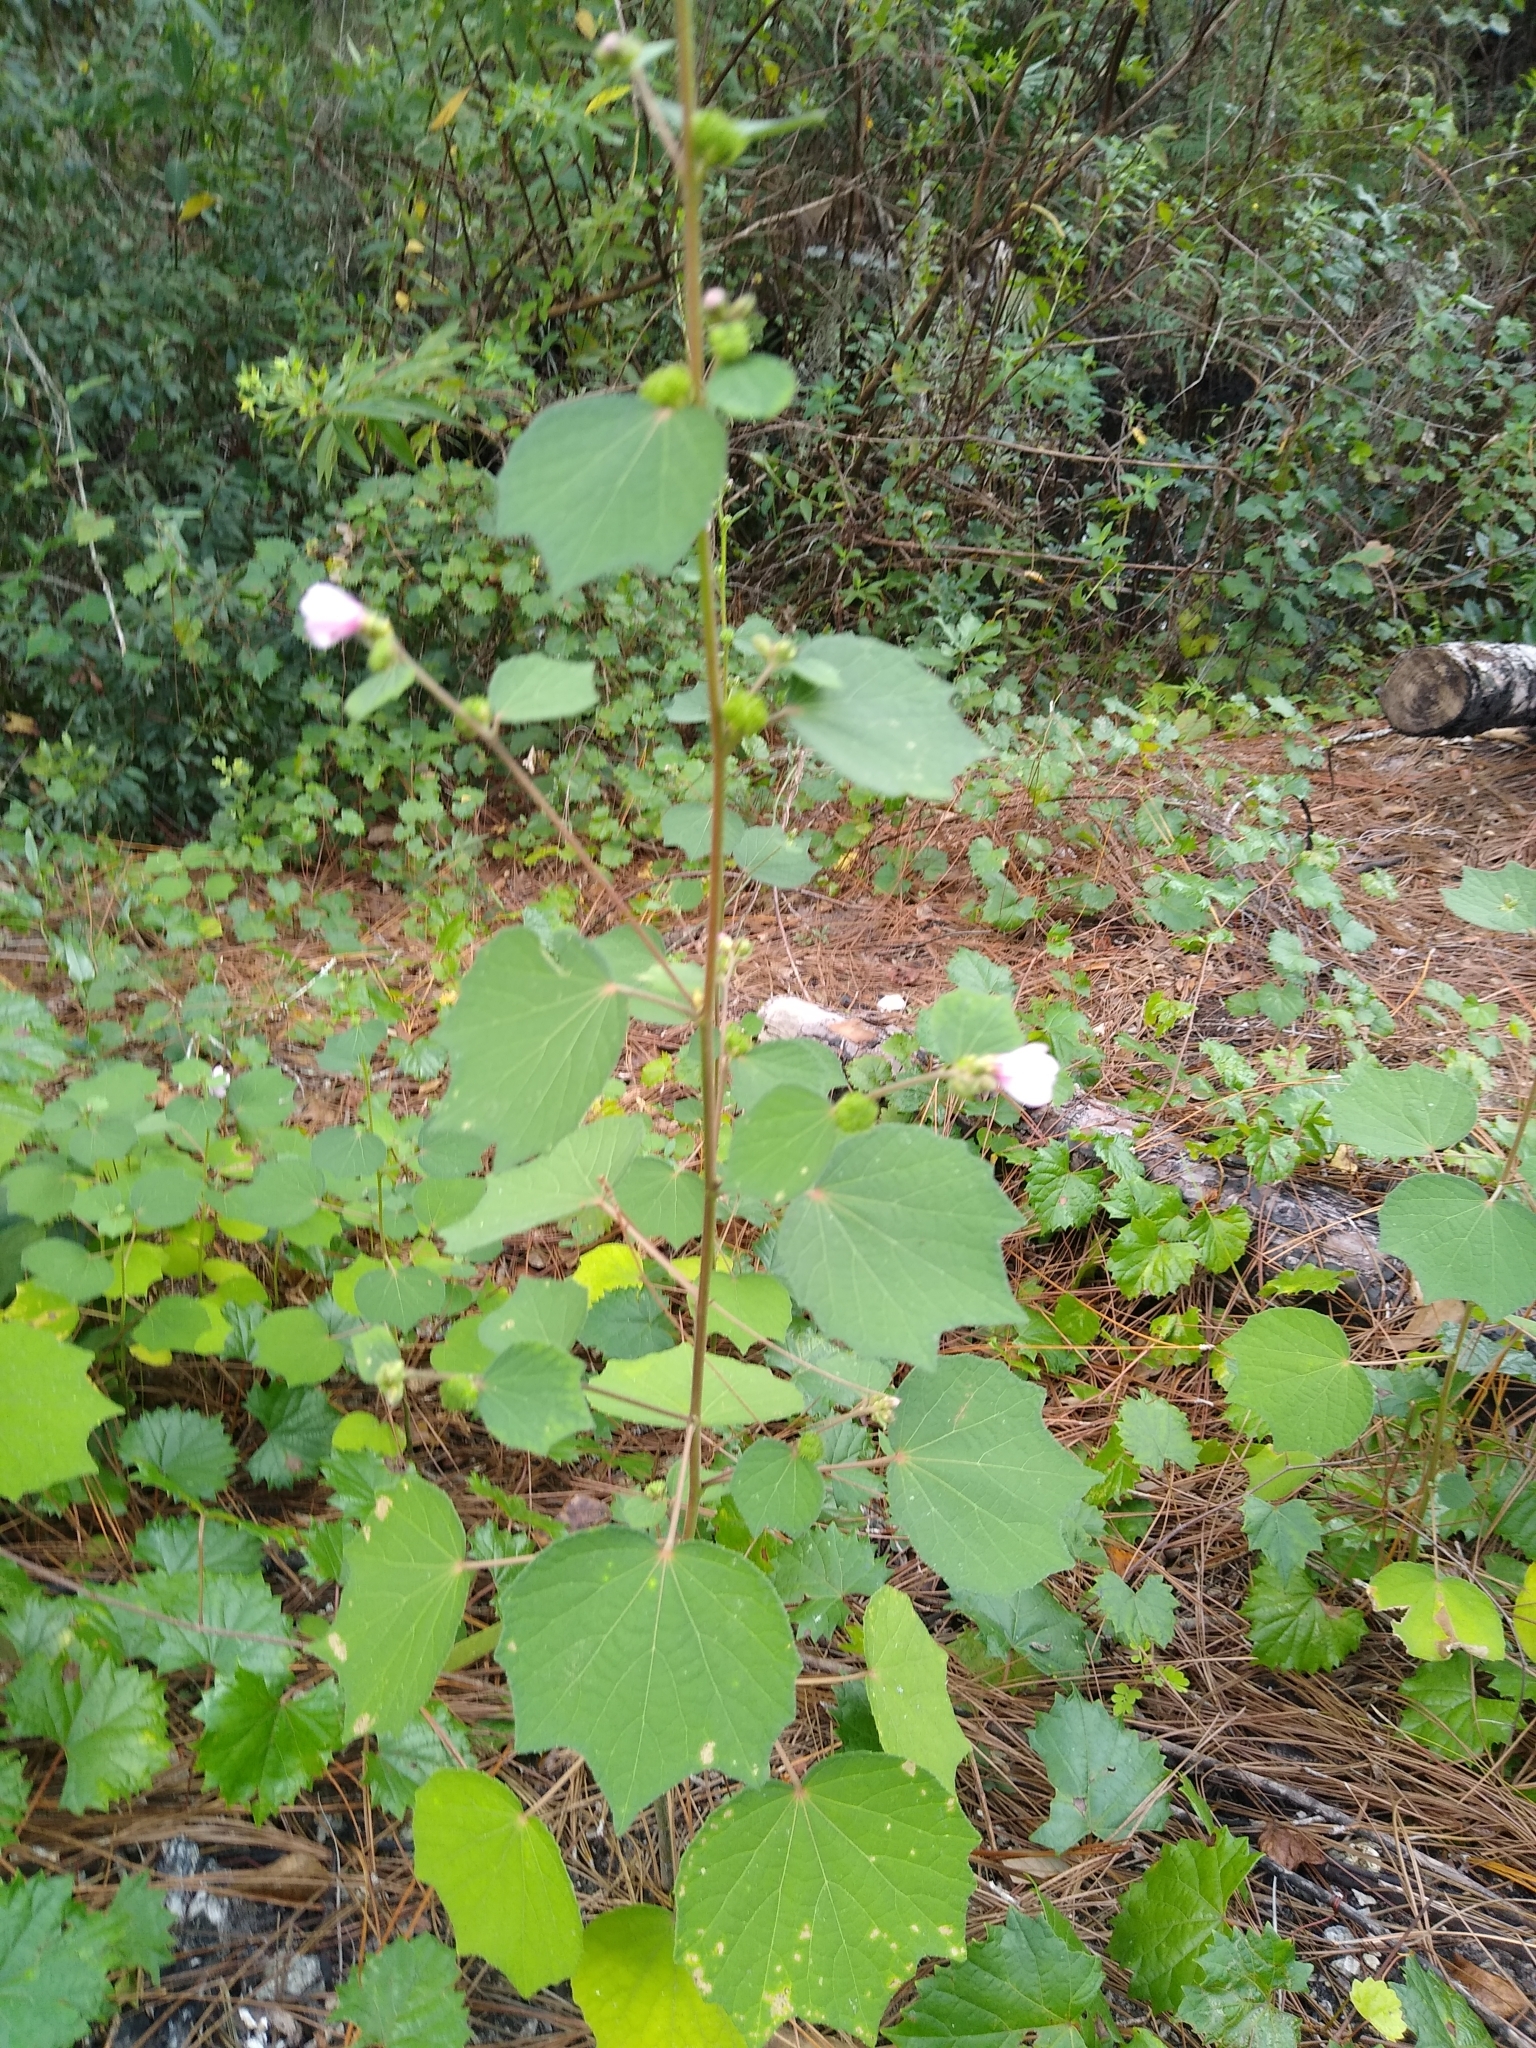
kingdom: Plantae
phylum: Tracheophyta
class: Magnoliopsida
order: Malvales
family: Malvaceae
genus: Urena
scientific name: Urena lobata
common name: Caesarweed
